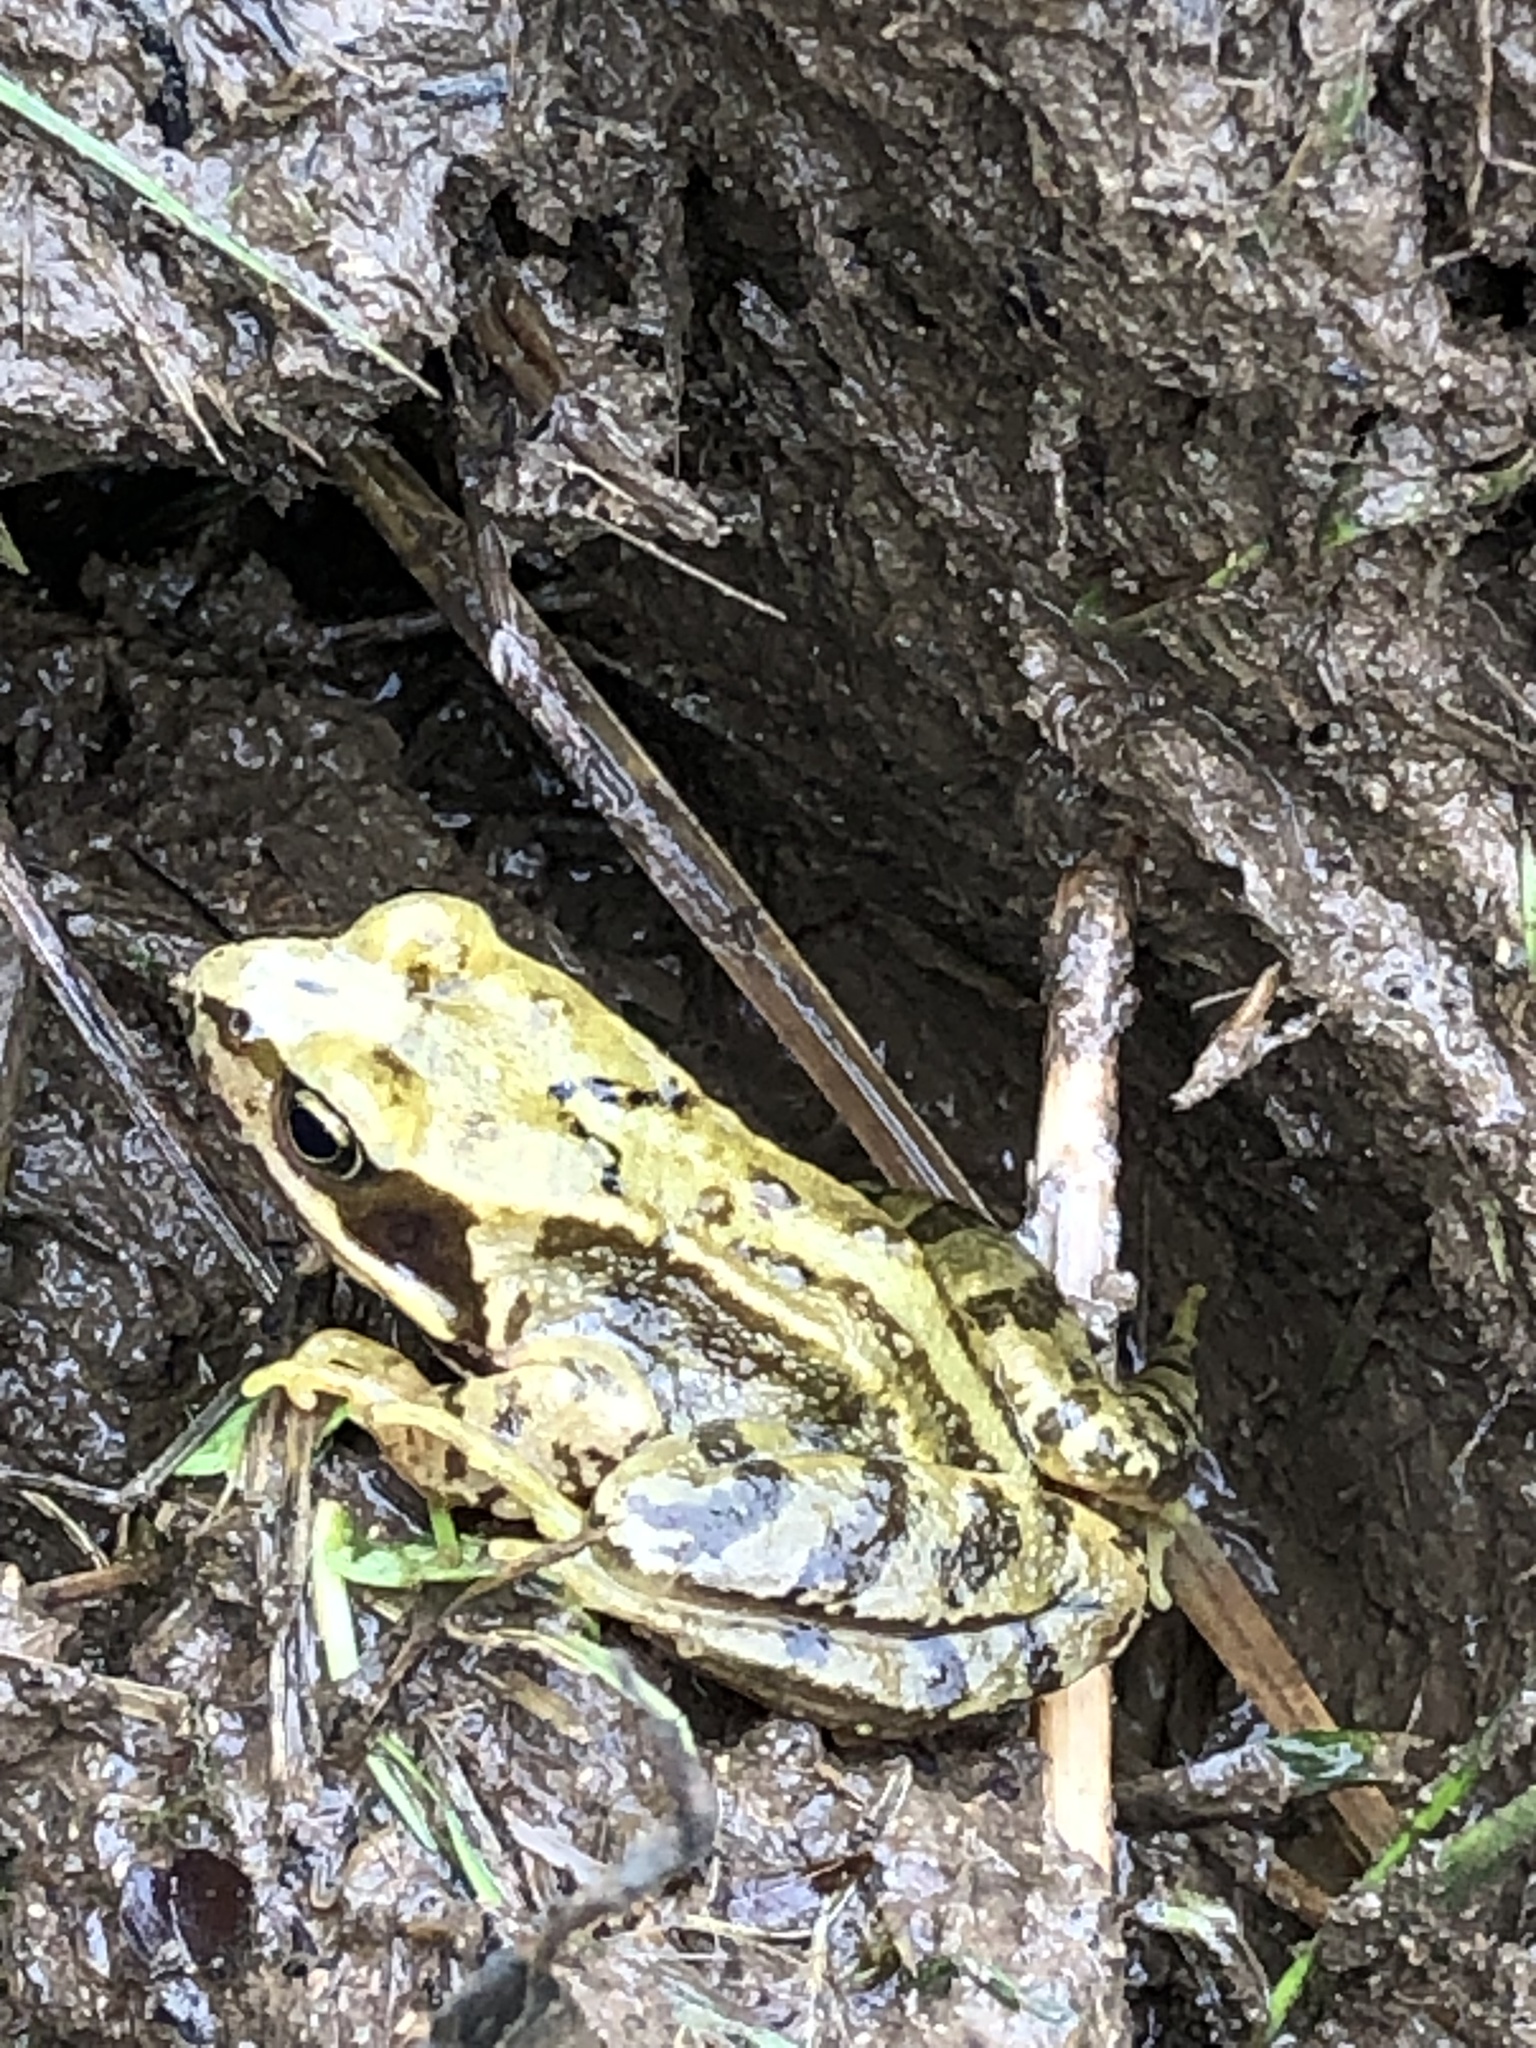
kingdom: Animalia
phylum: Chordata
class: Amphibia
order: Anura
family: Ranidae
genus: Rana
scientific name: Rana temporaria
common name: Common frog
